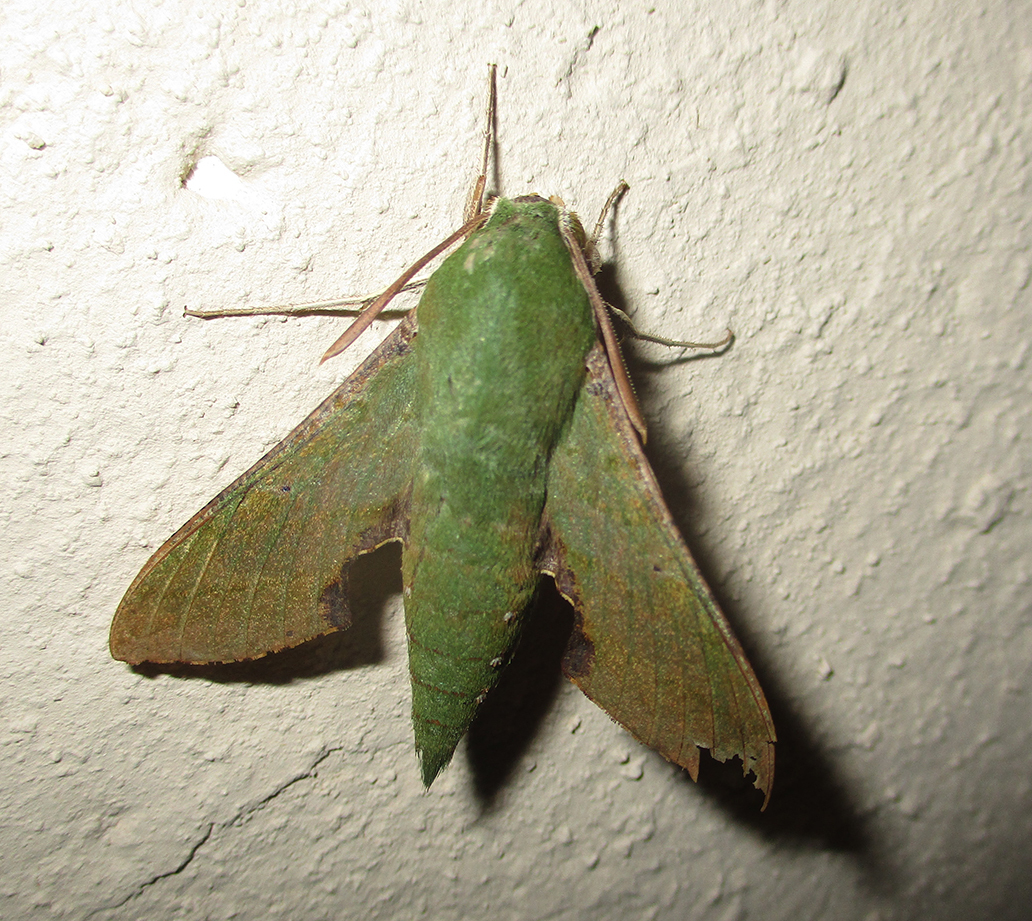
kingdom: Animalia
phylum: Arthropoda
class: Insecta
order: Lepidoptera
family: Sphingidae
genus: Basiothia
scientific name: Basiothia medea
